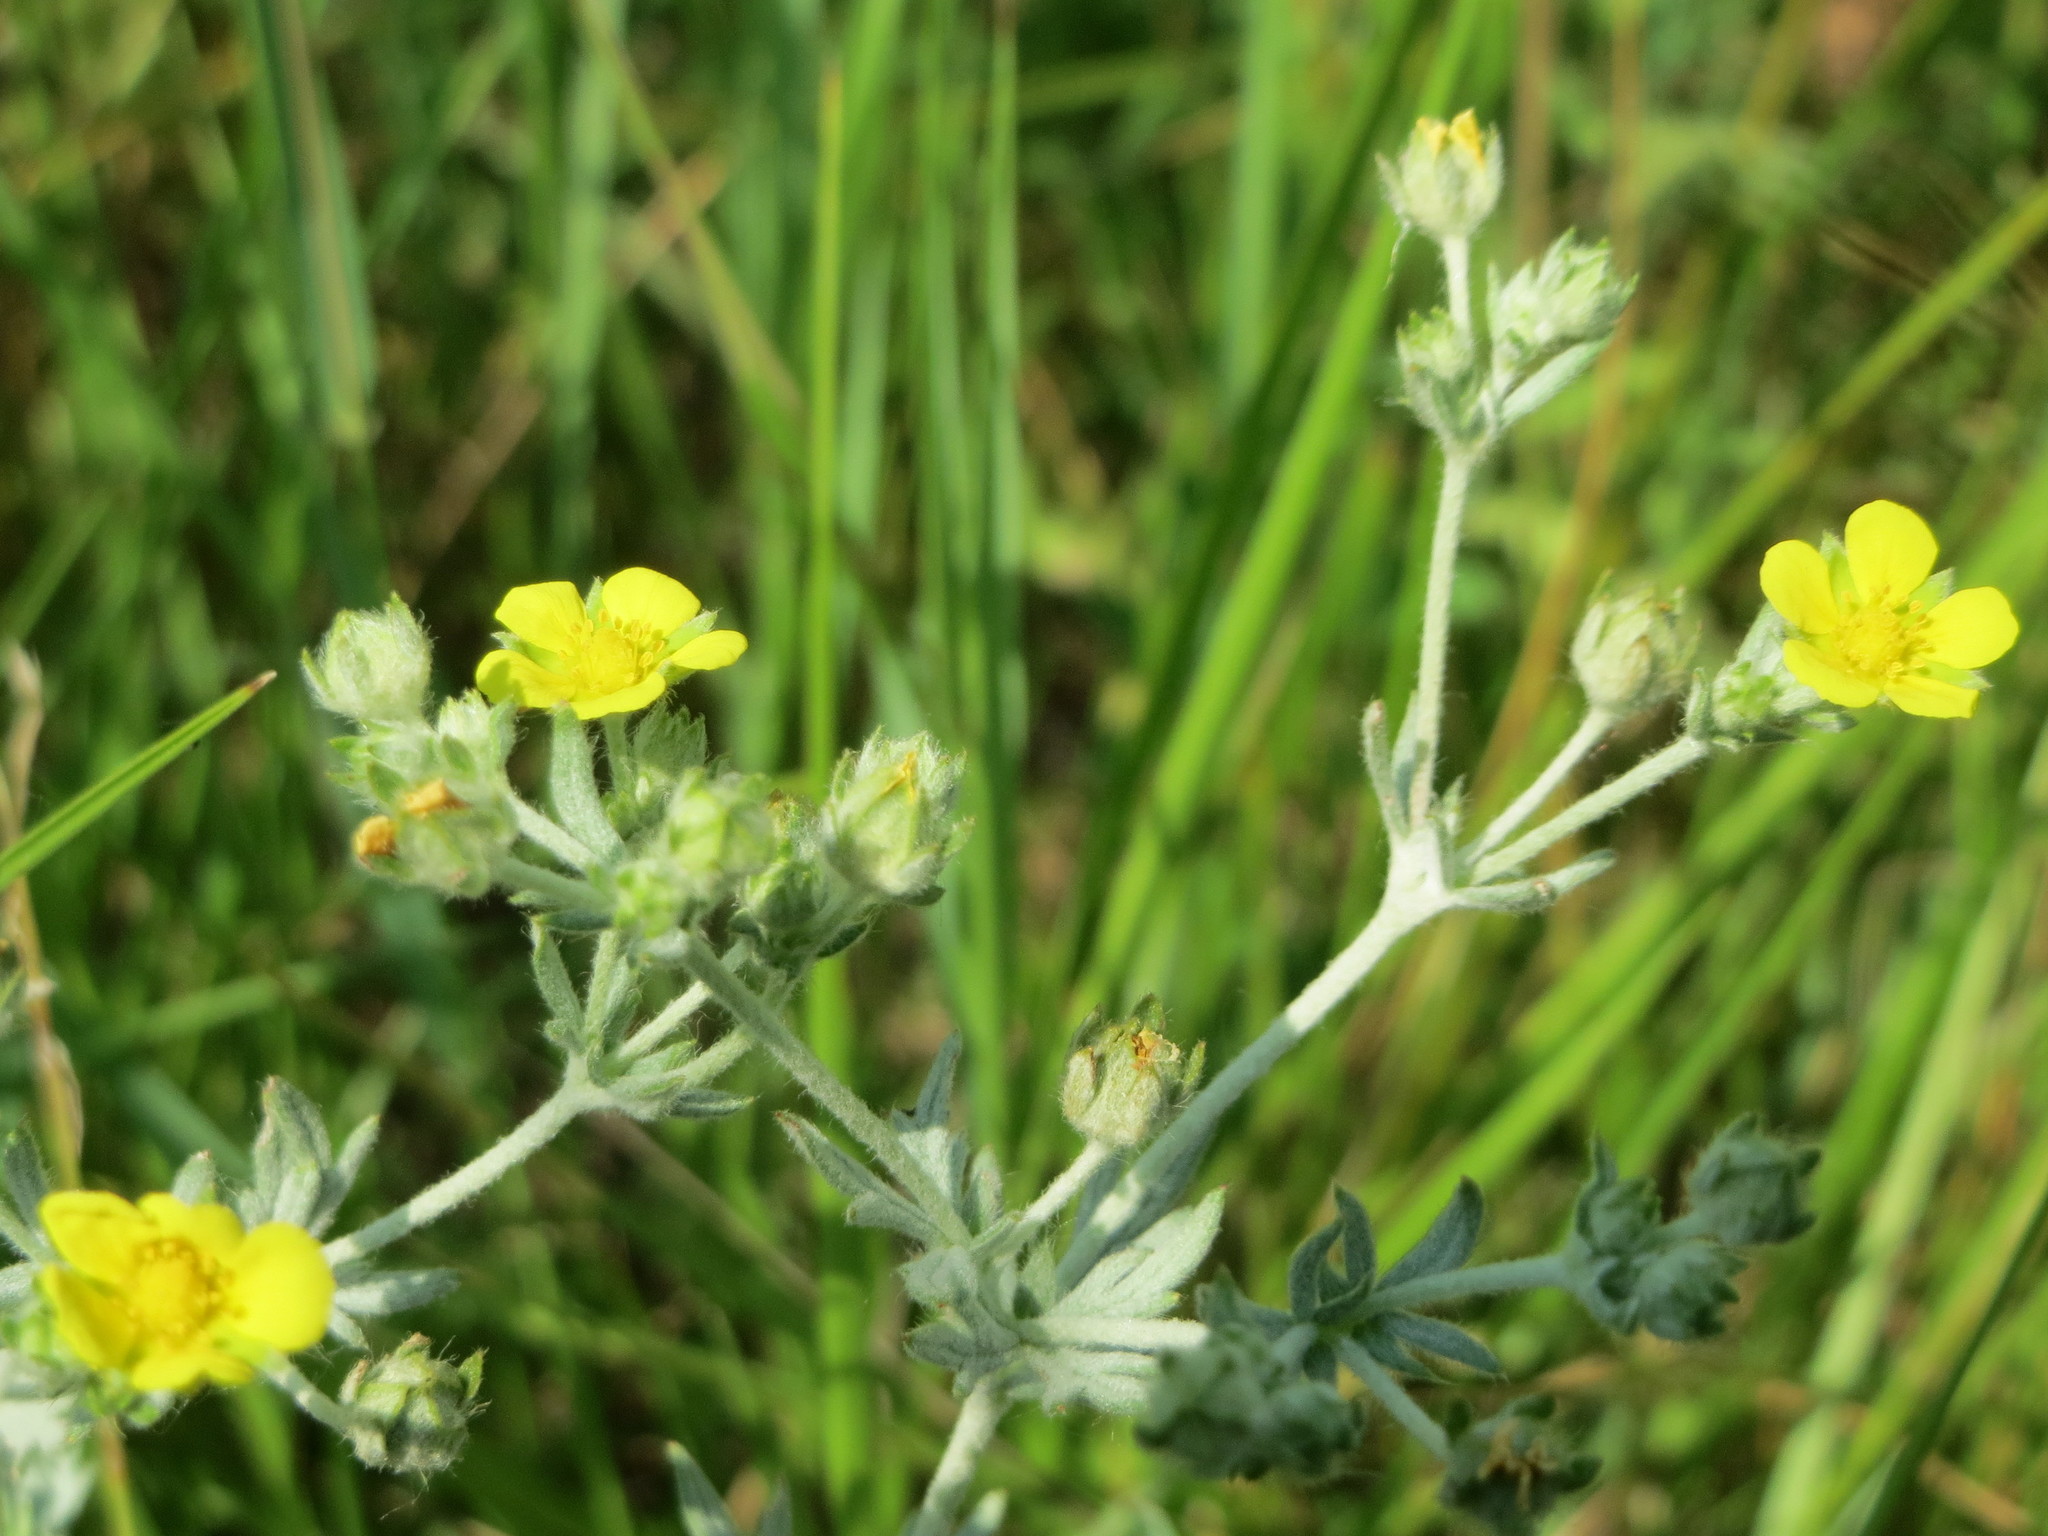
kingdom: Plantae
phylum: Tracheophyta
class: Magnoliopsida
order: Rosales
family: Rosaceae
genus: Potentilla
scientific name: Potentilla argentea
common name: Hoary cinquefoil
